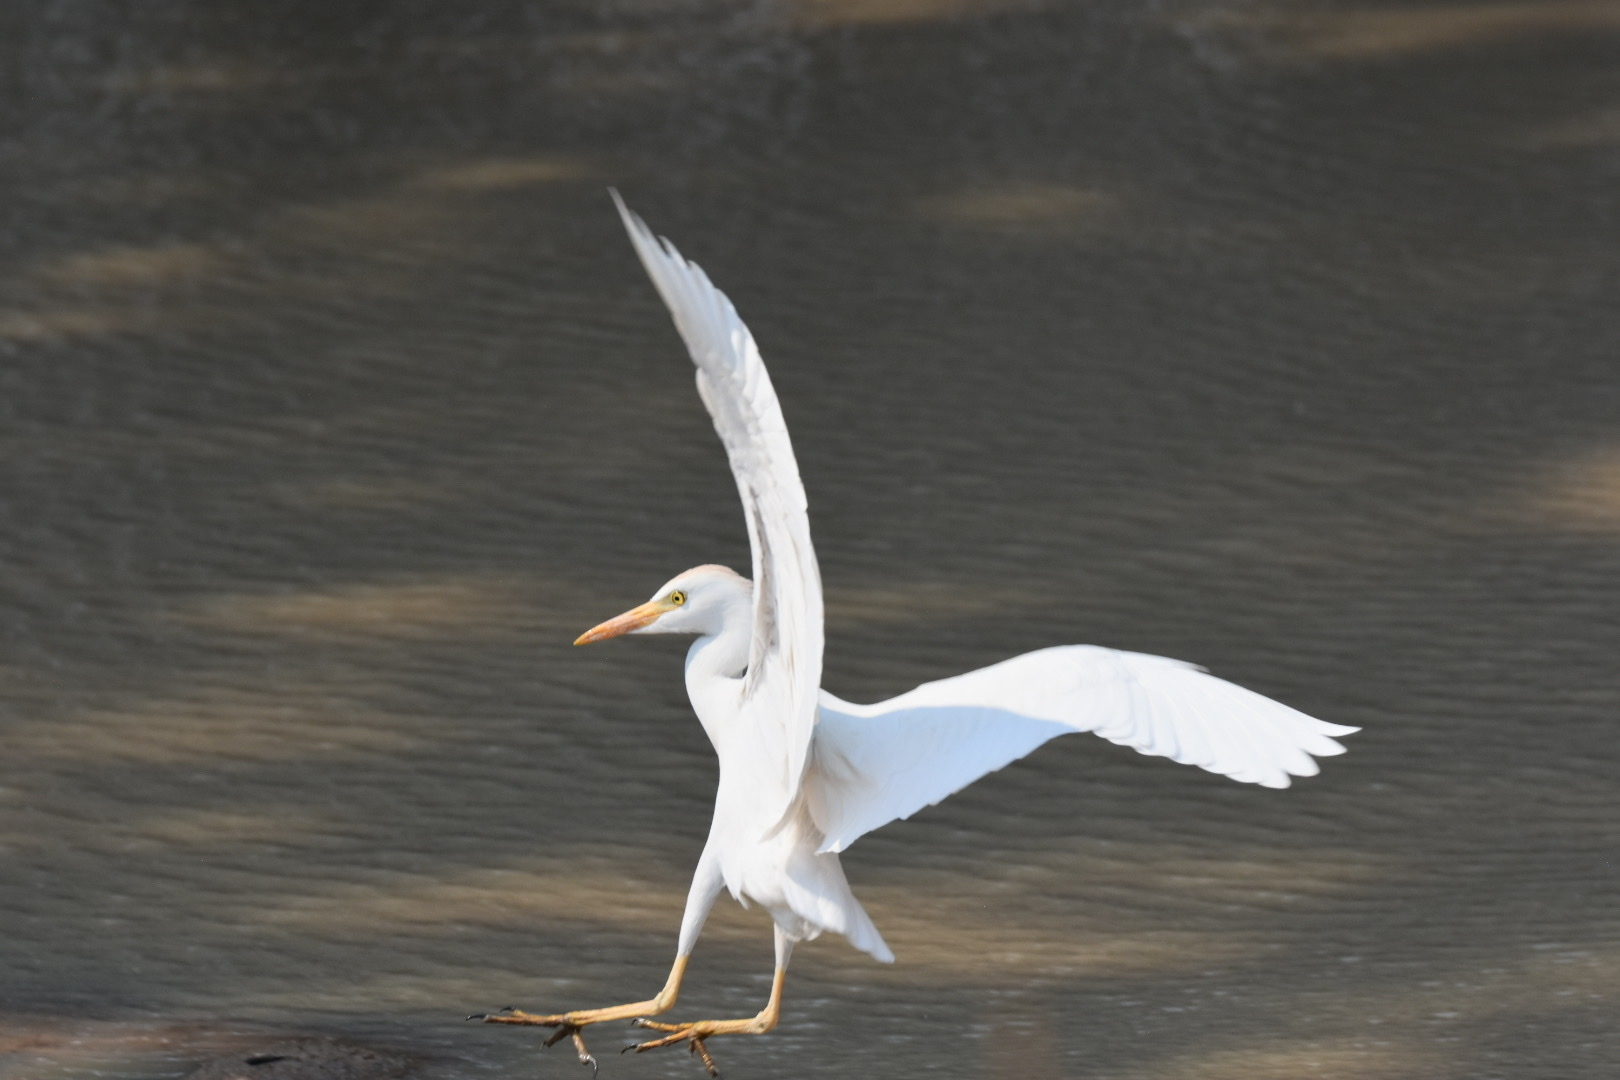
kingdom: Animalia
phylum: Chordata
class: Aves
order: Pelecaniformes
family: Ardeidae
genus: Bubulcus
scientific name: Bubulcus ibis
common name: Cattle egret
